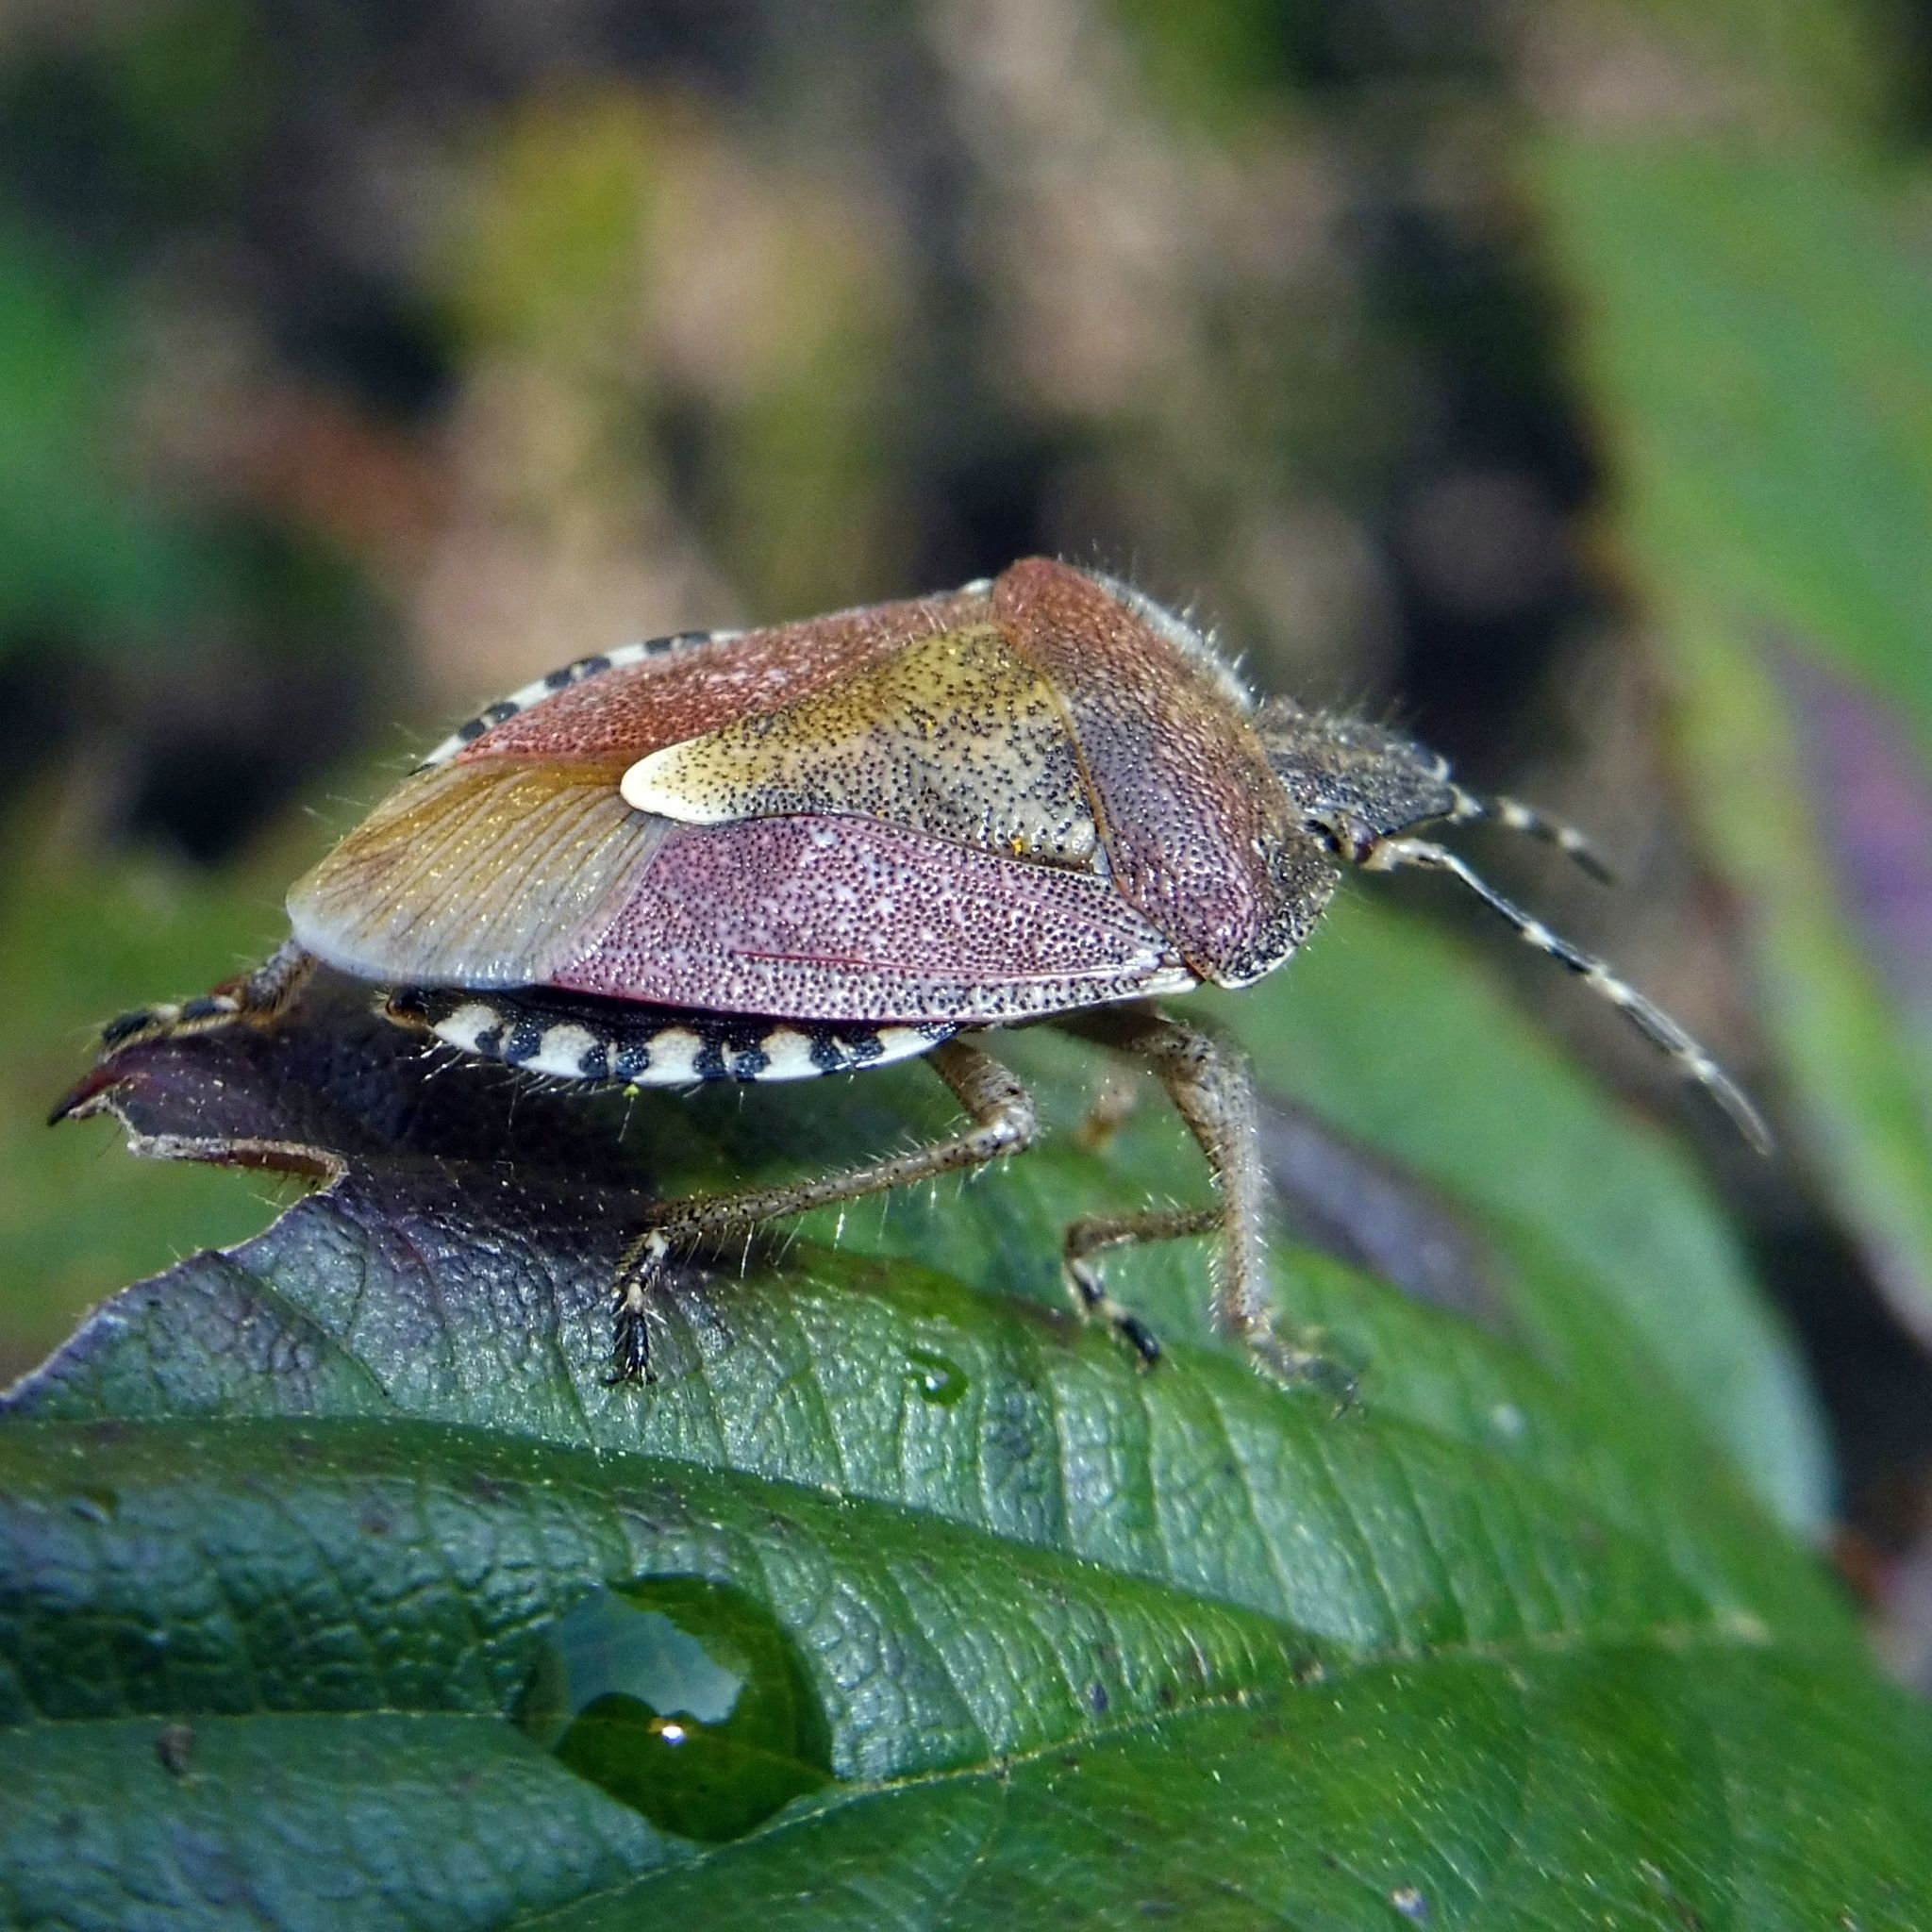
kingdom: Animalia
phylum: Arthropoda
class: Insecta
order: Hemiptera
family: Pentatomidae
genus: Dolycoris
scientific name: Dolycoris baccarum
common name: Sloe bug
